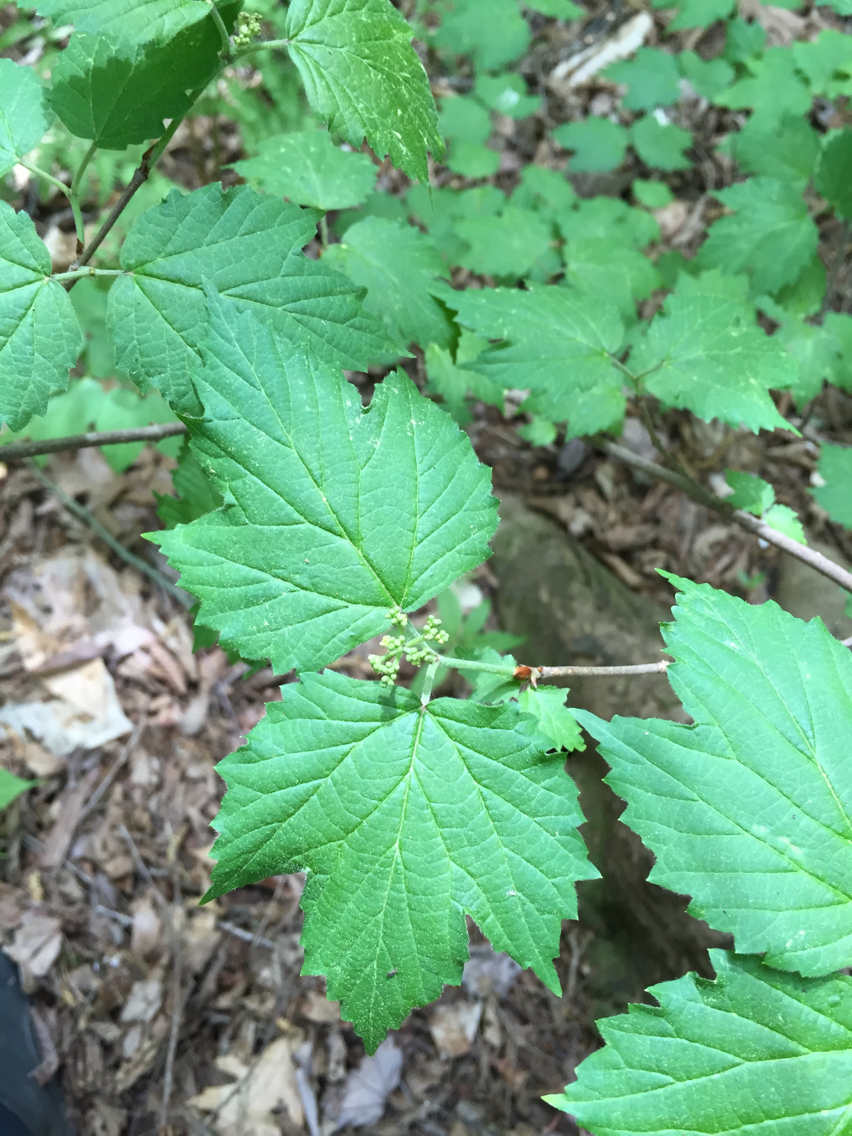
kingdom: Plantae
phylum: Tracheophyta
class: Magnoliopsida
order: Dipsacales
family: Viburnaceae
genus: Viburnum
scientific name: Viburnum acerifolium
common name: Dockmackie
